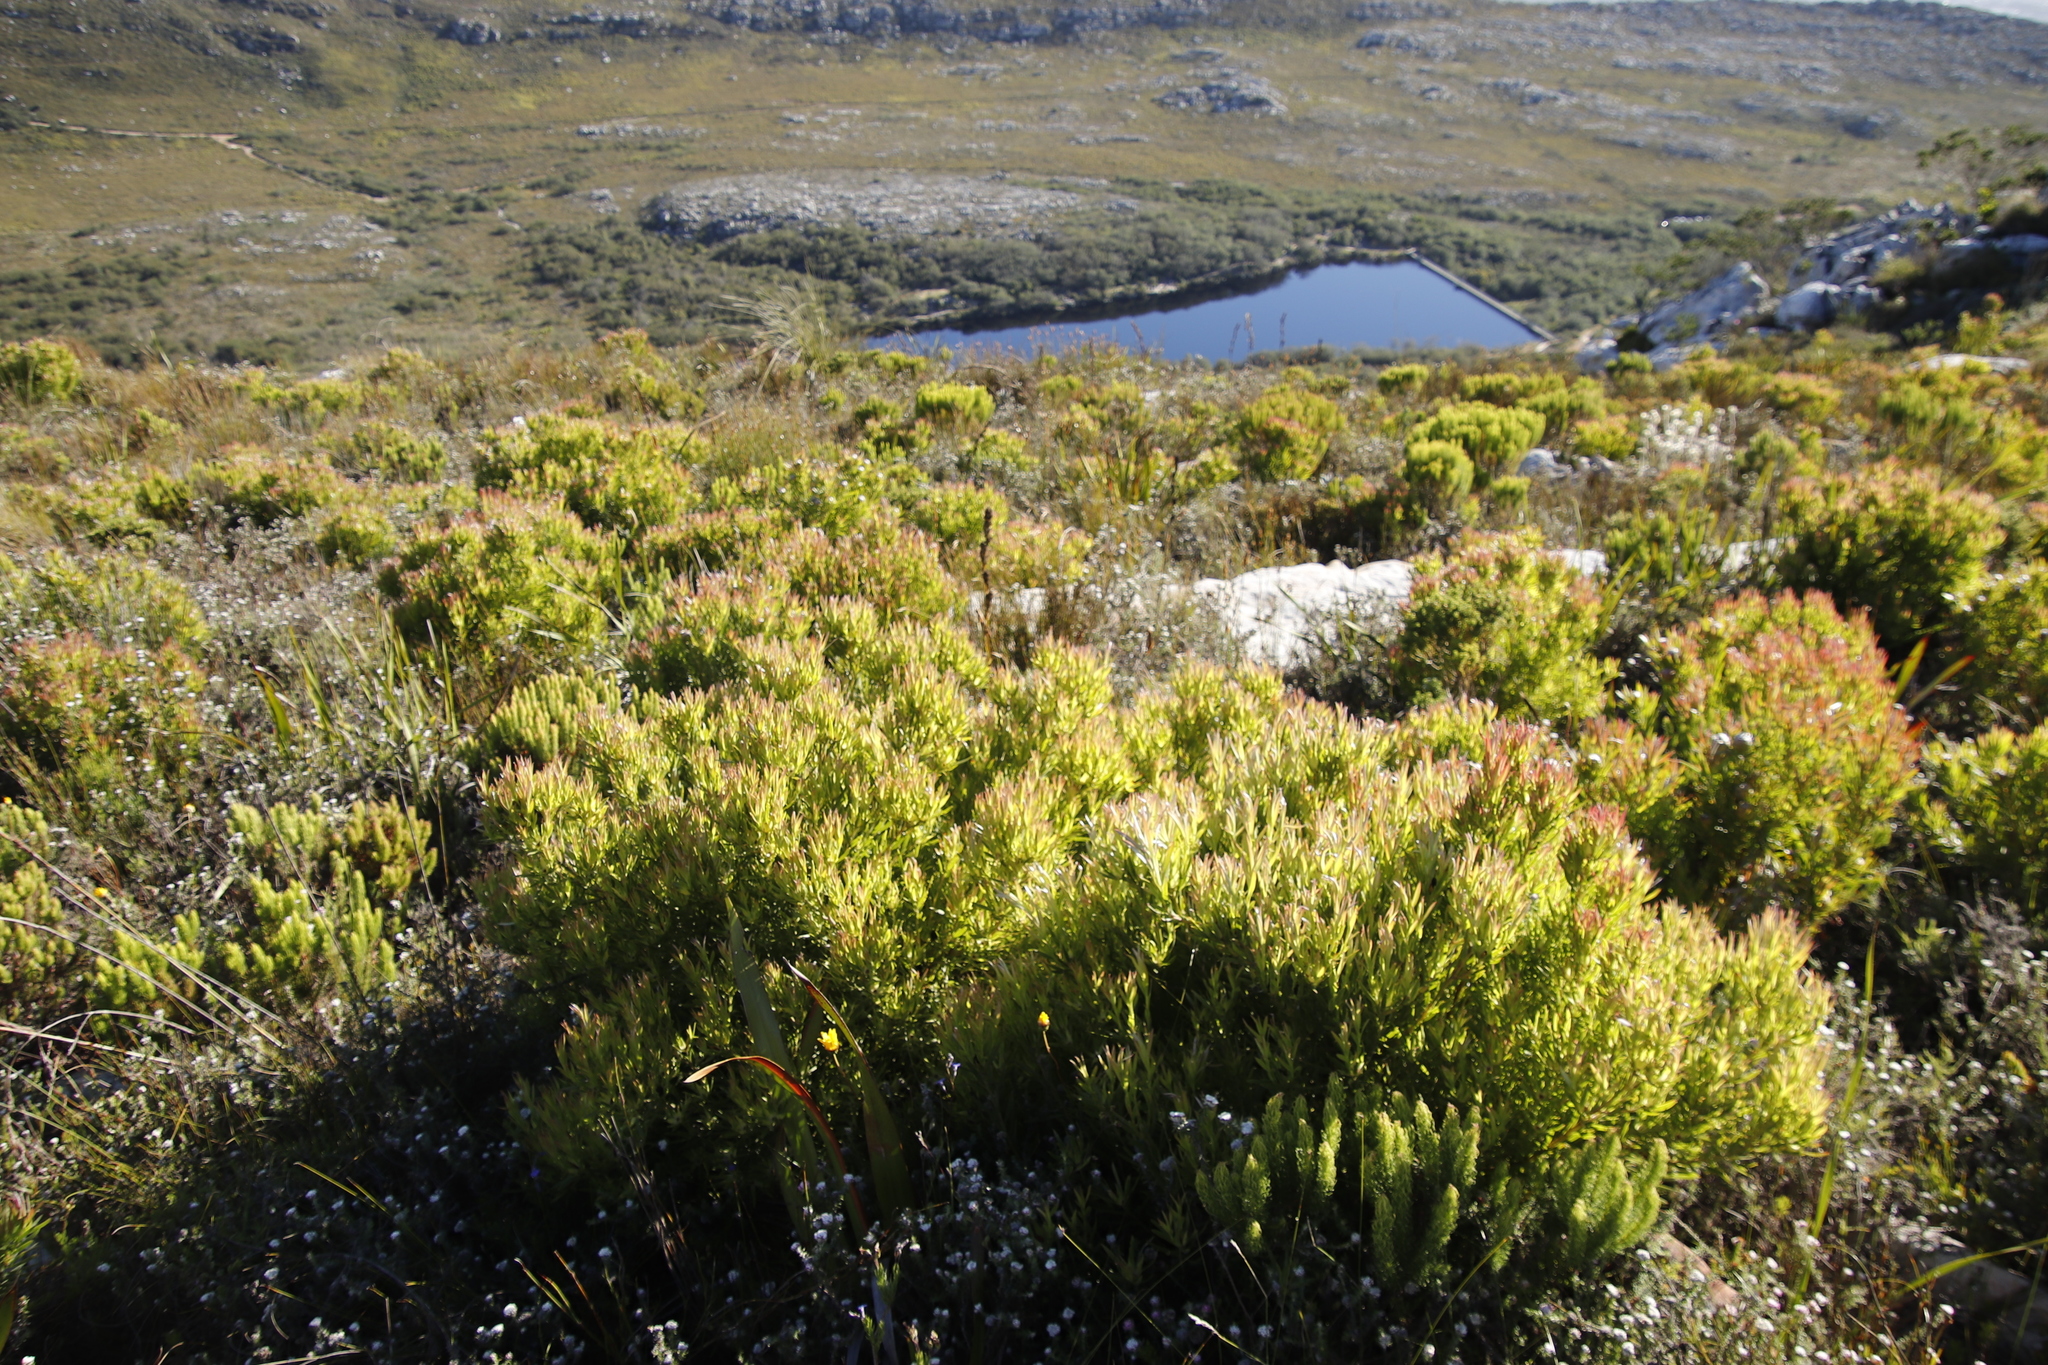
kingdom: Plantae
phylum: Tracheophyta
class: Magnoliopsida
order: Proteales
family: Proteaceae
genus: Leucadendron
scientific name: Leucadendron xanthoconus
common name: Sickle-leaf conebush
